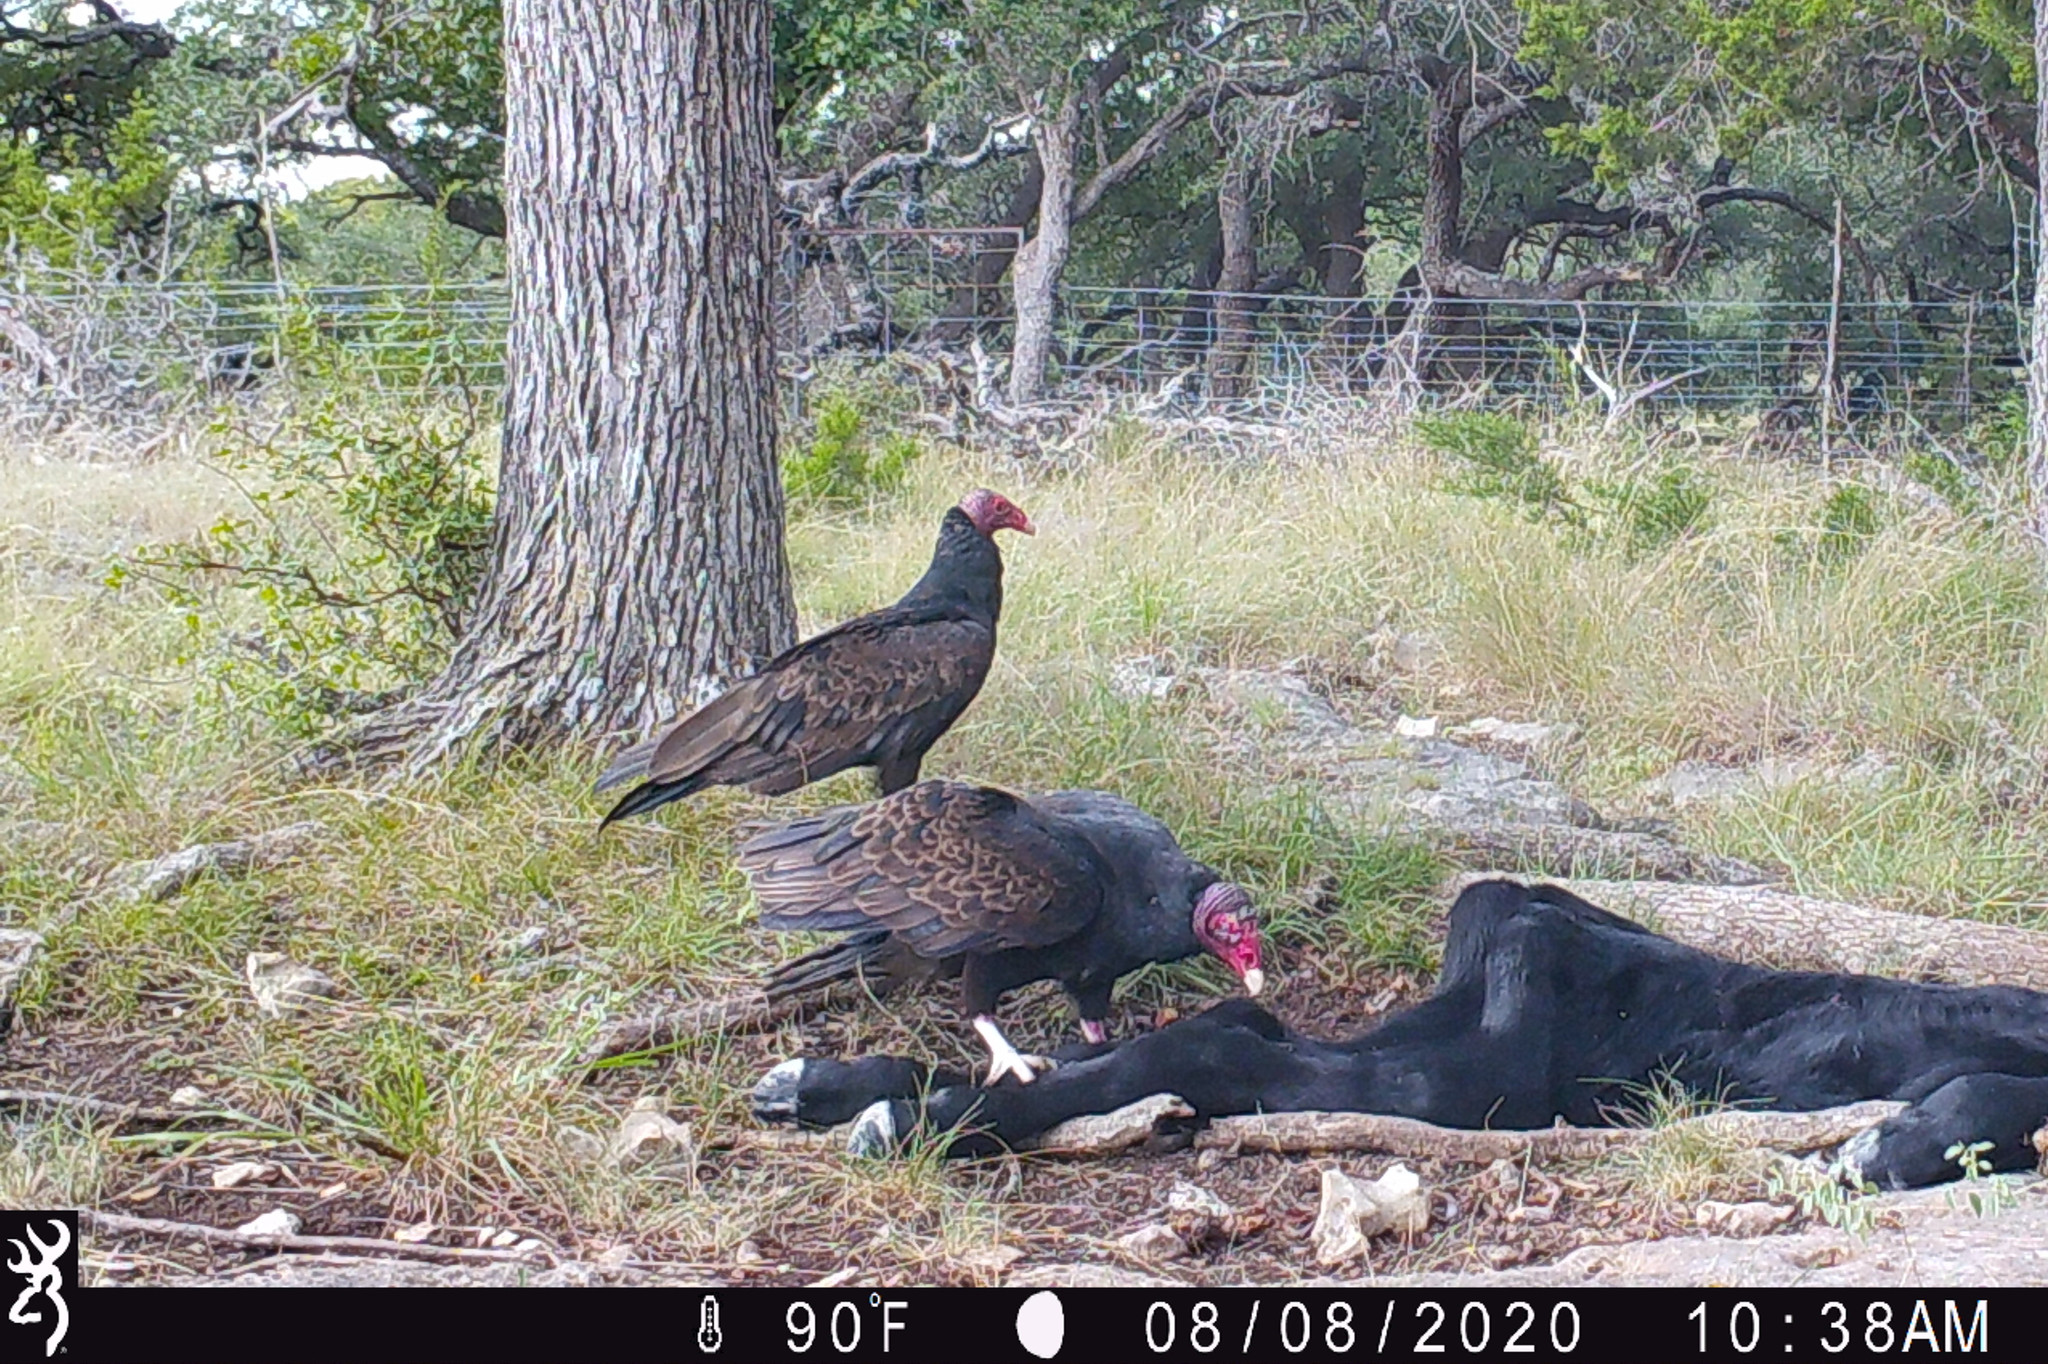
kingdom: Animalia
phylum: Chordata
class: Aves
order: Accipitriformes
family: Cathartidae
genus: Cathartes
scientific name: Cathartes aura
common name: Turkey vulture
